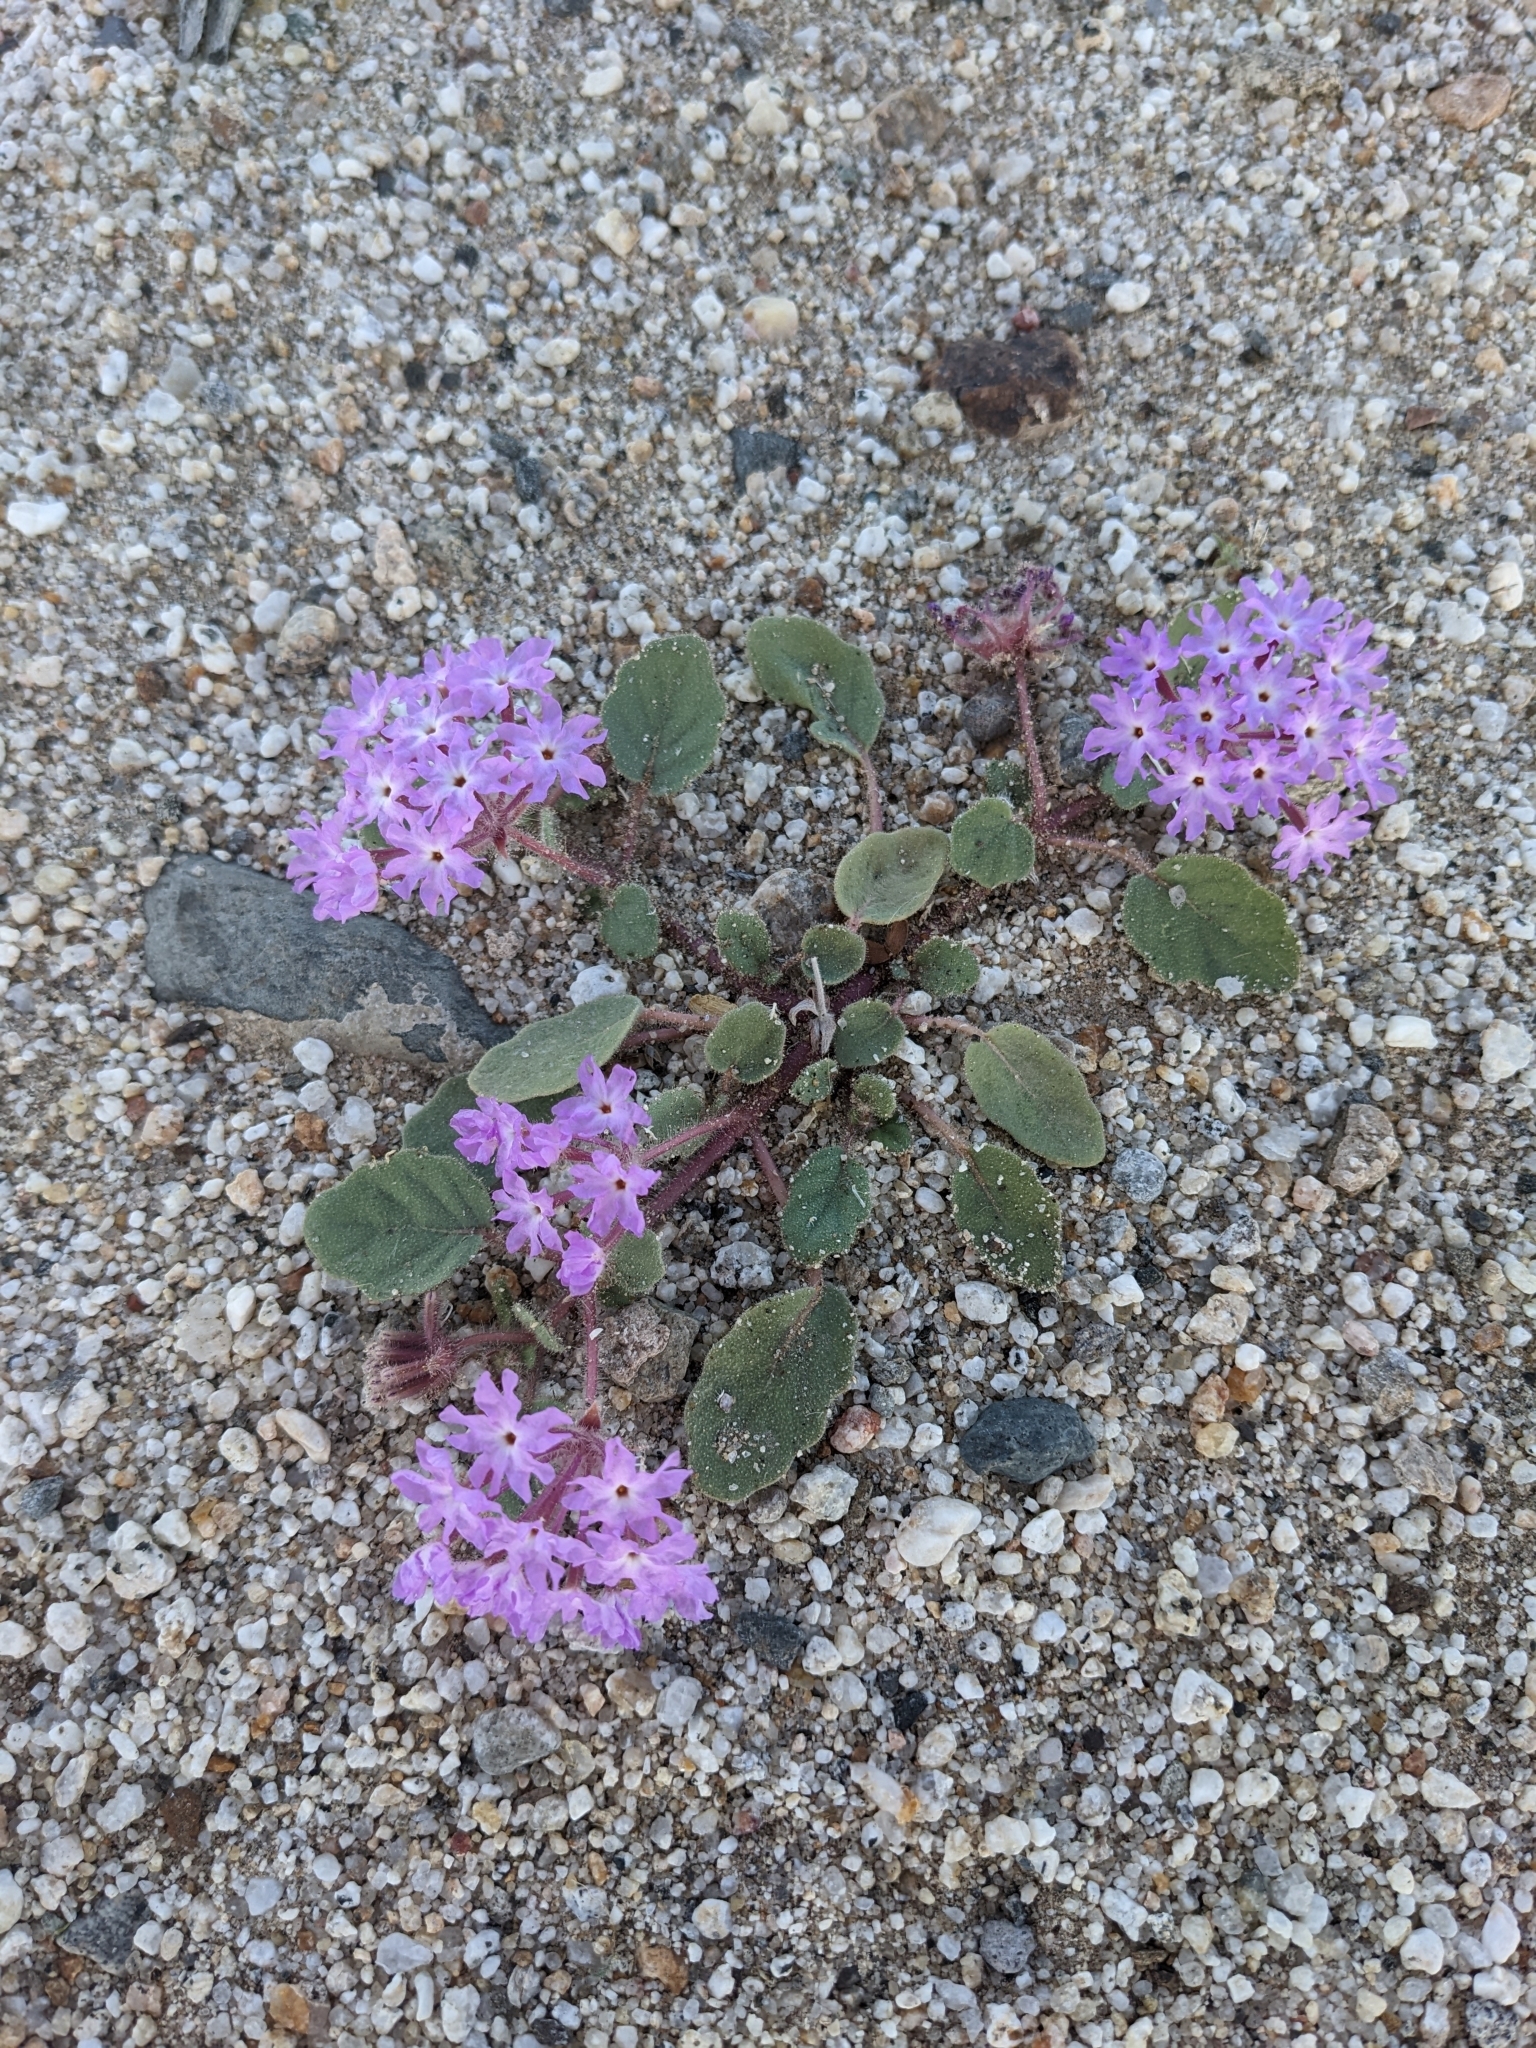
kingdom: Plantae
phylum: Tracheophyta
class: Magnoliopsida
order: Caryophyllales
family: Nyctaginaceae
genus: Abronia
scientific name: Abronia villosa
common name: Desert sand-verbena
